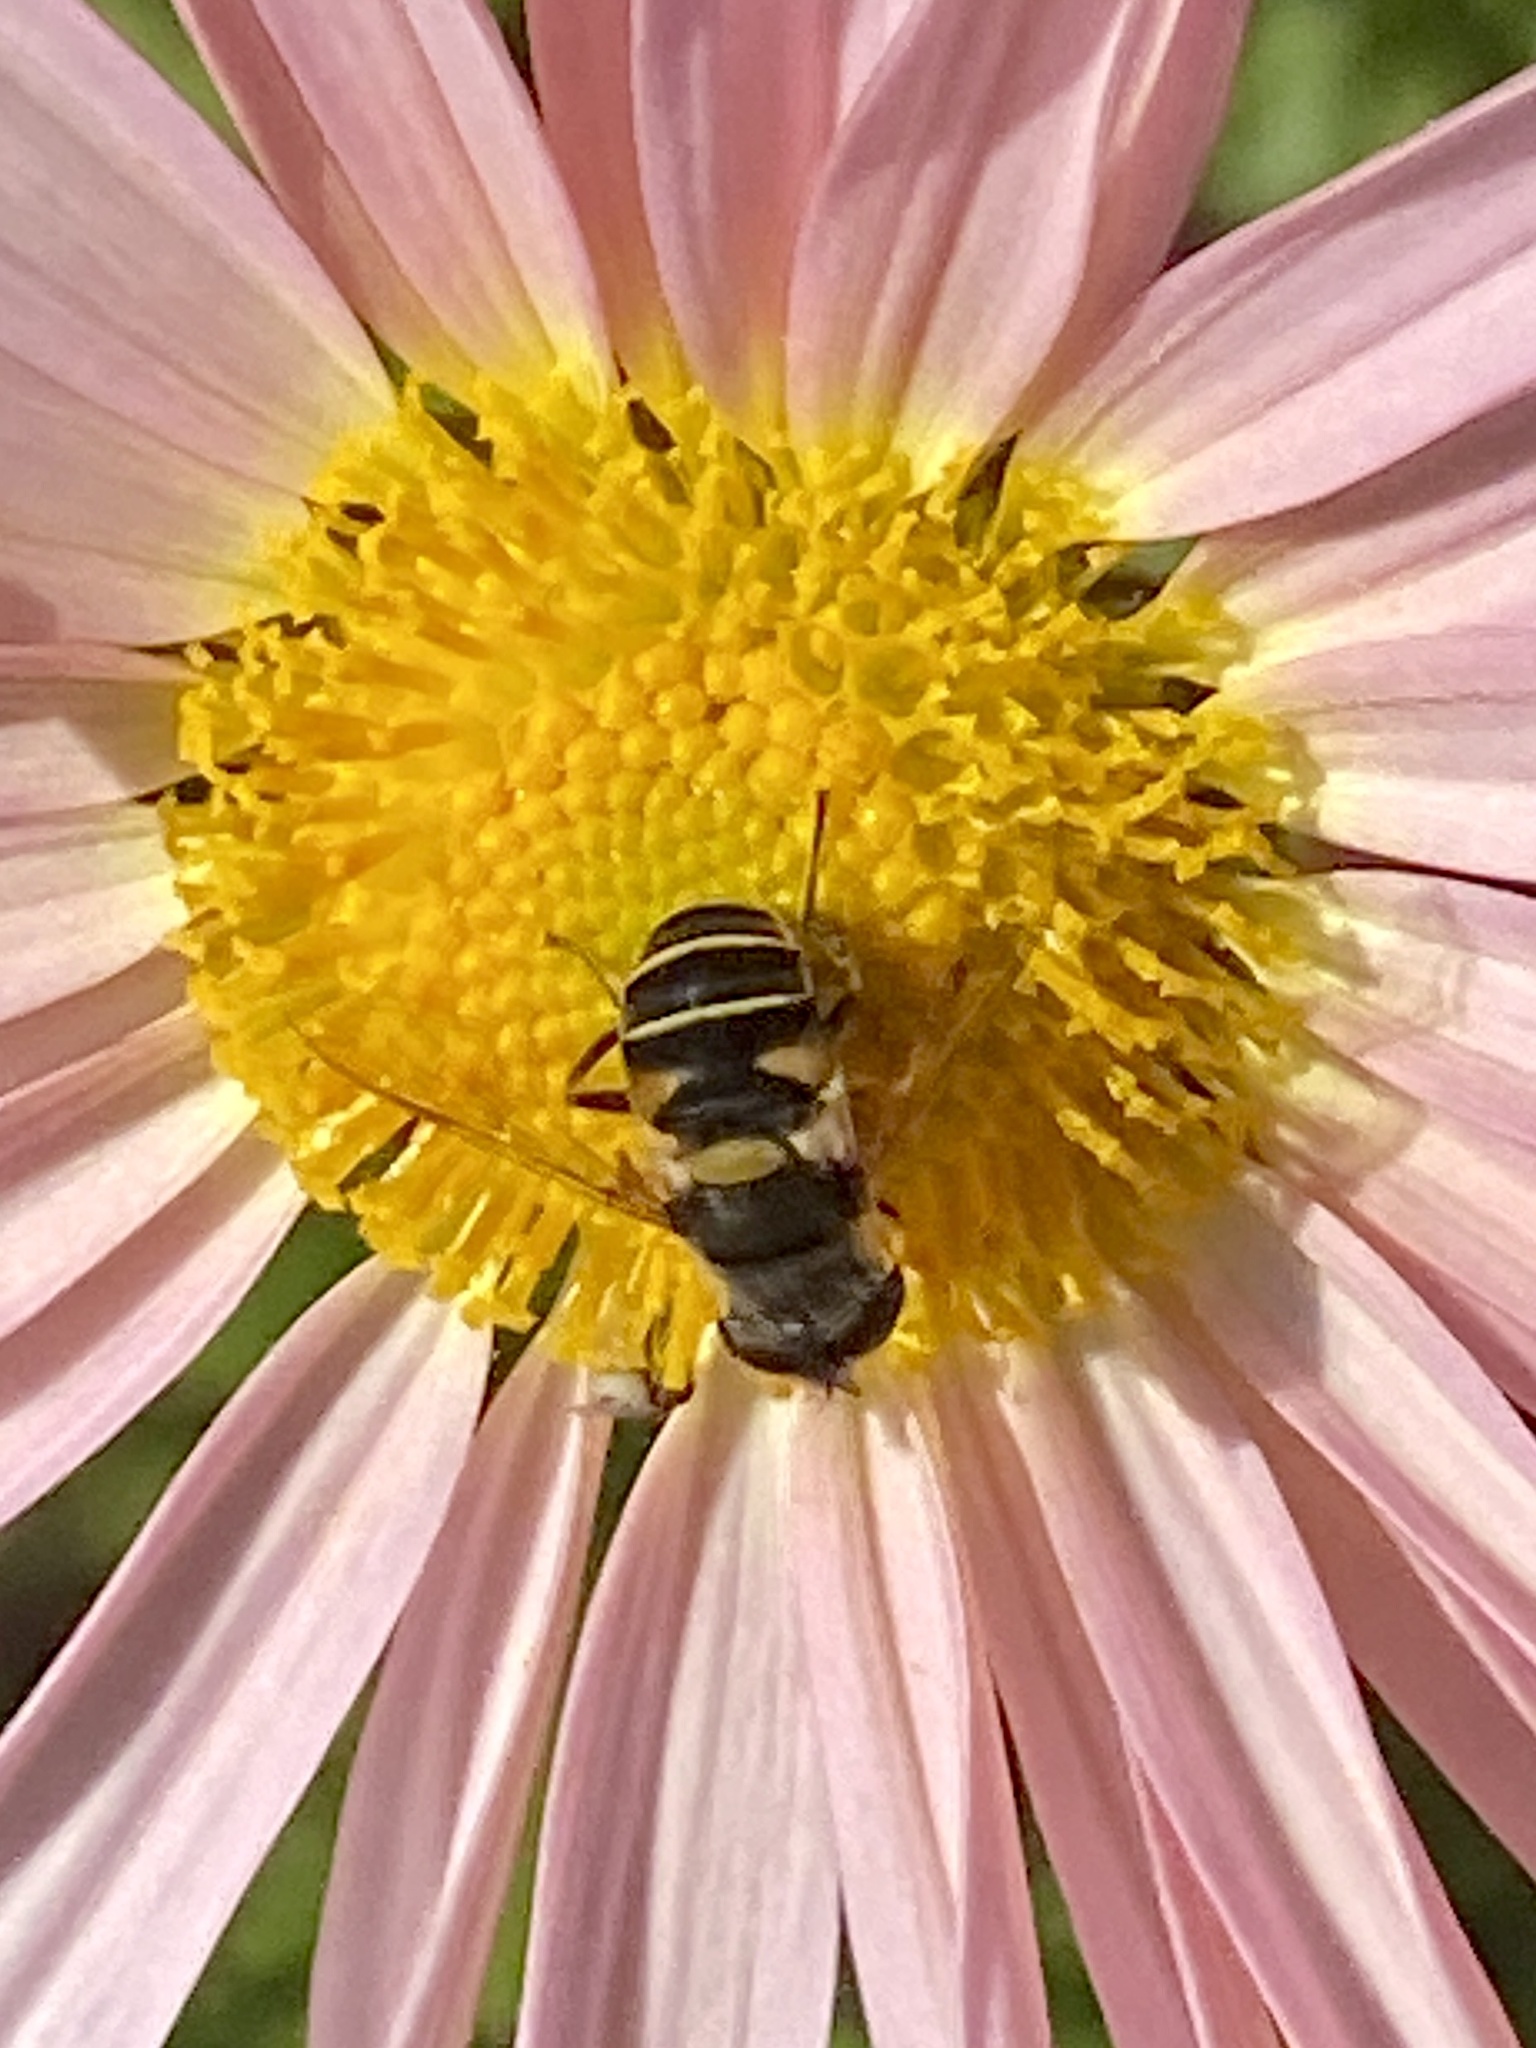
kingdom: Animalia
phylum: Arthropoda
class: Insecta
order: Diptera
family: Syrphidae
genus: Eristalis
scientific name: Eristalis transversa
